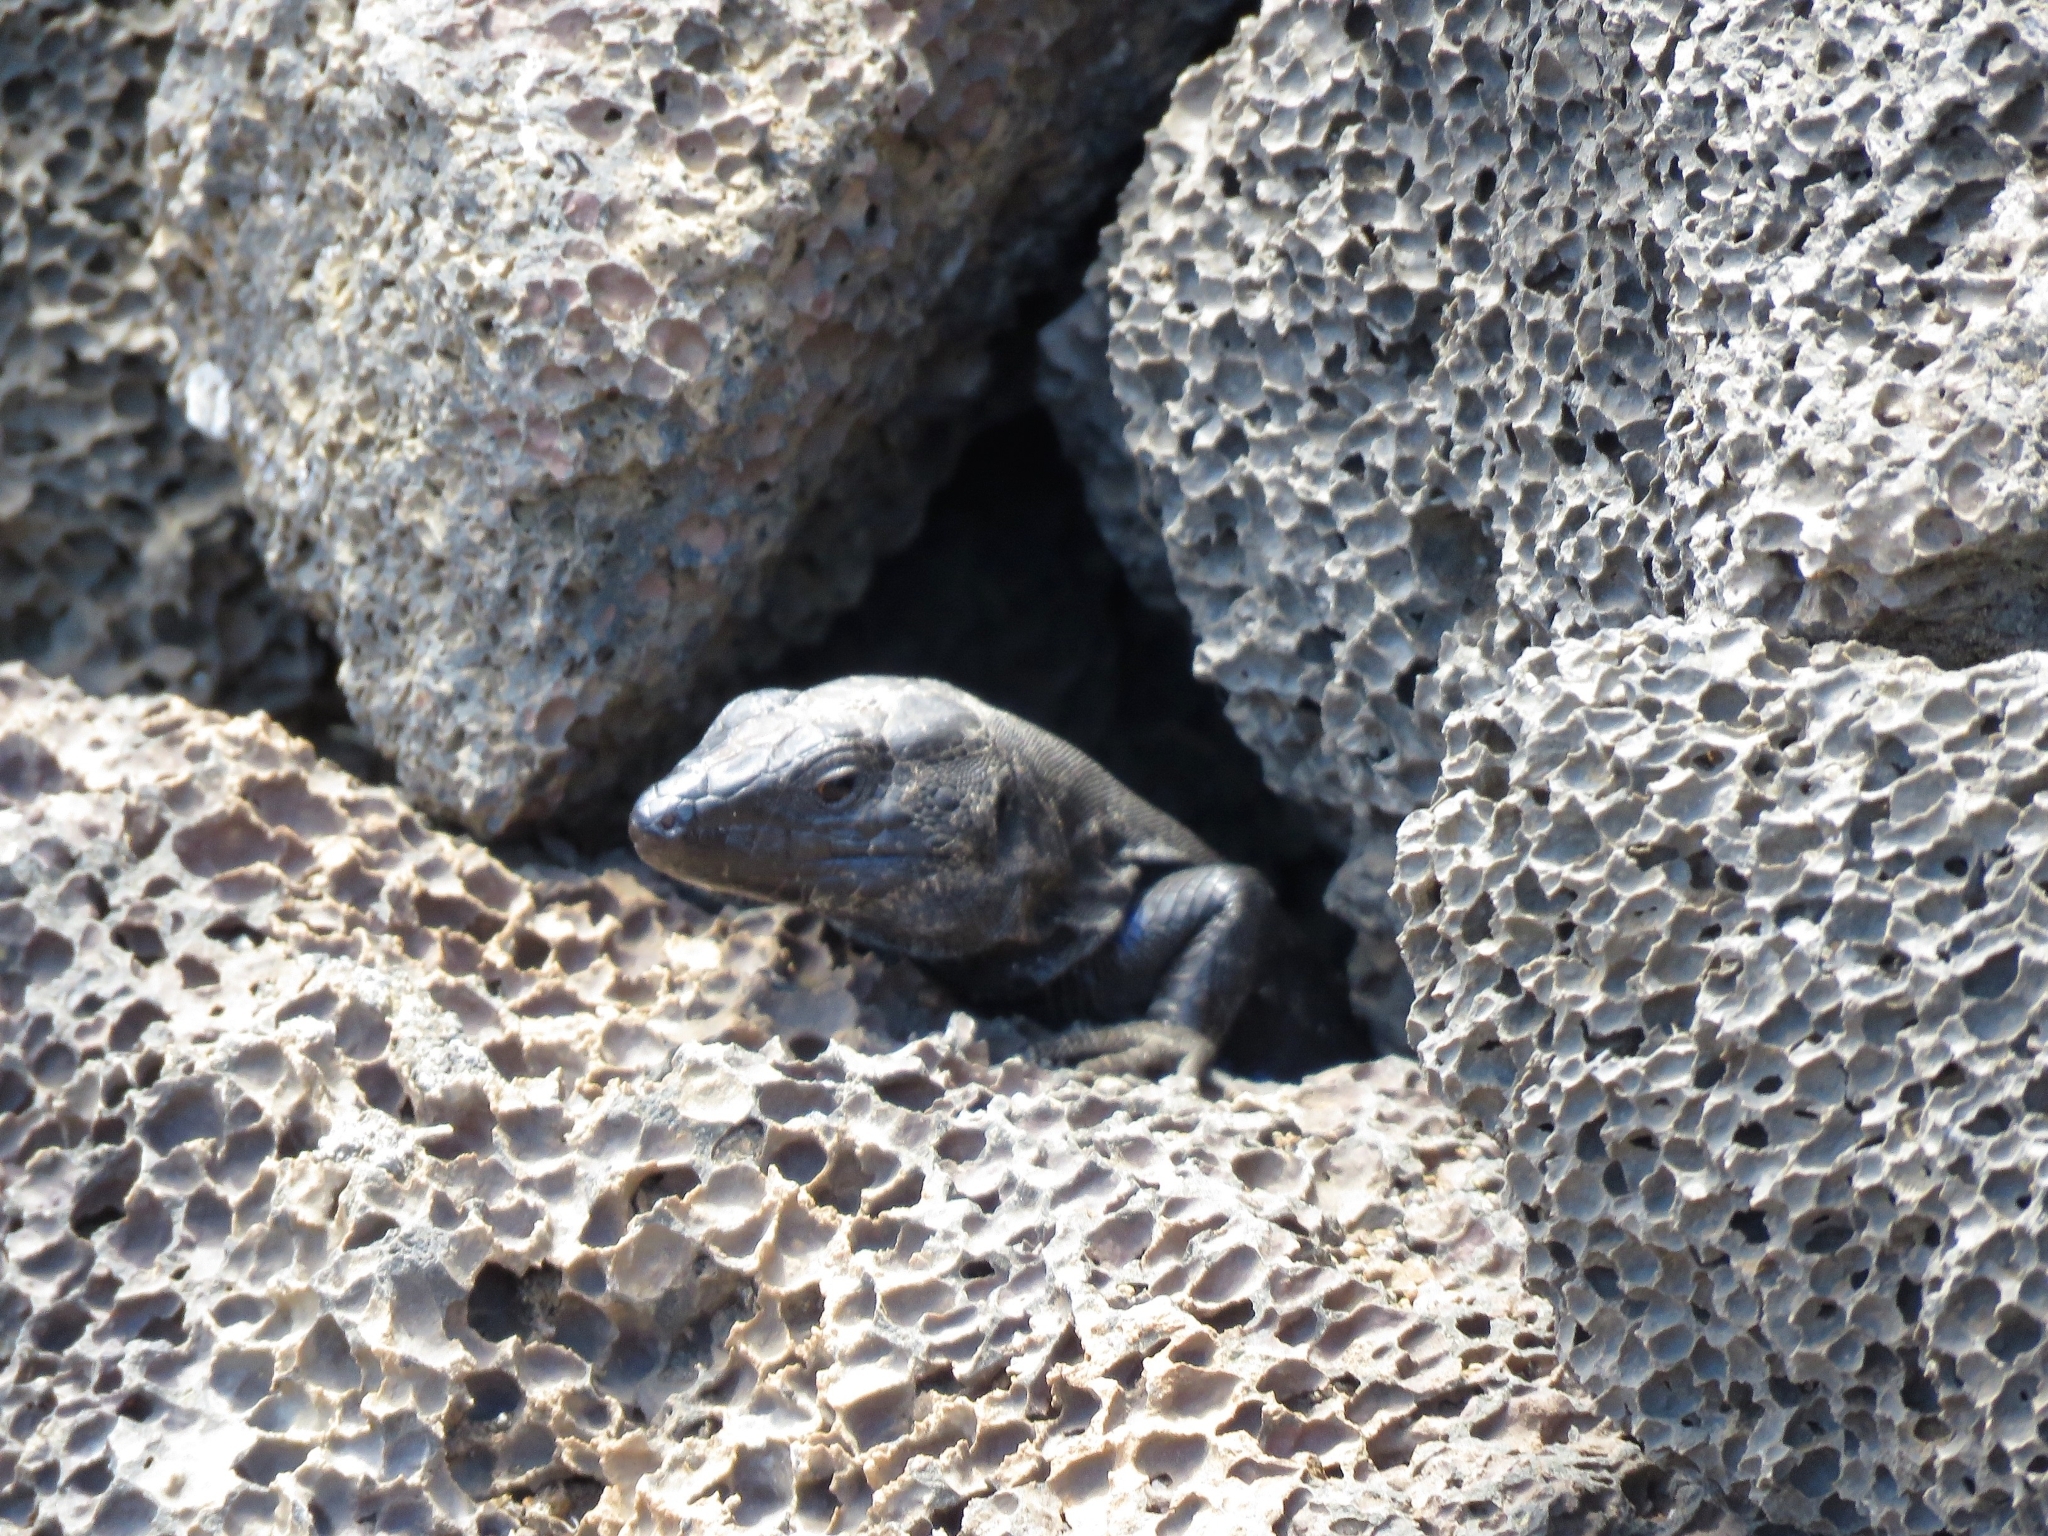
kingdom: Animalia
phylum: Chordata
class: Squamata
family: Lacertidae
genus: Gallotia
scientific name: Gallotia caesaris
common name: Boettger's lizard
